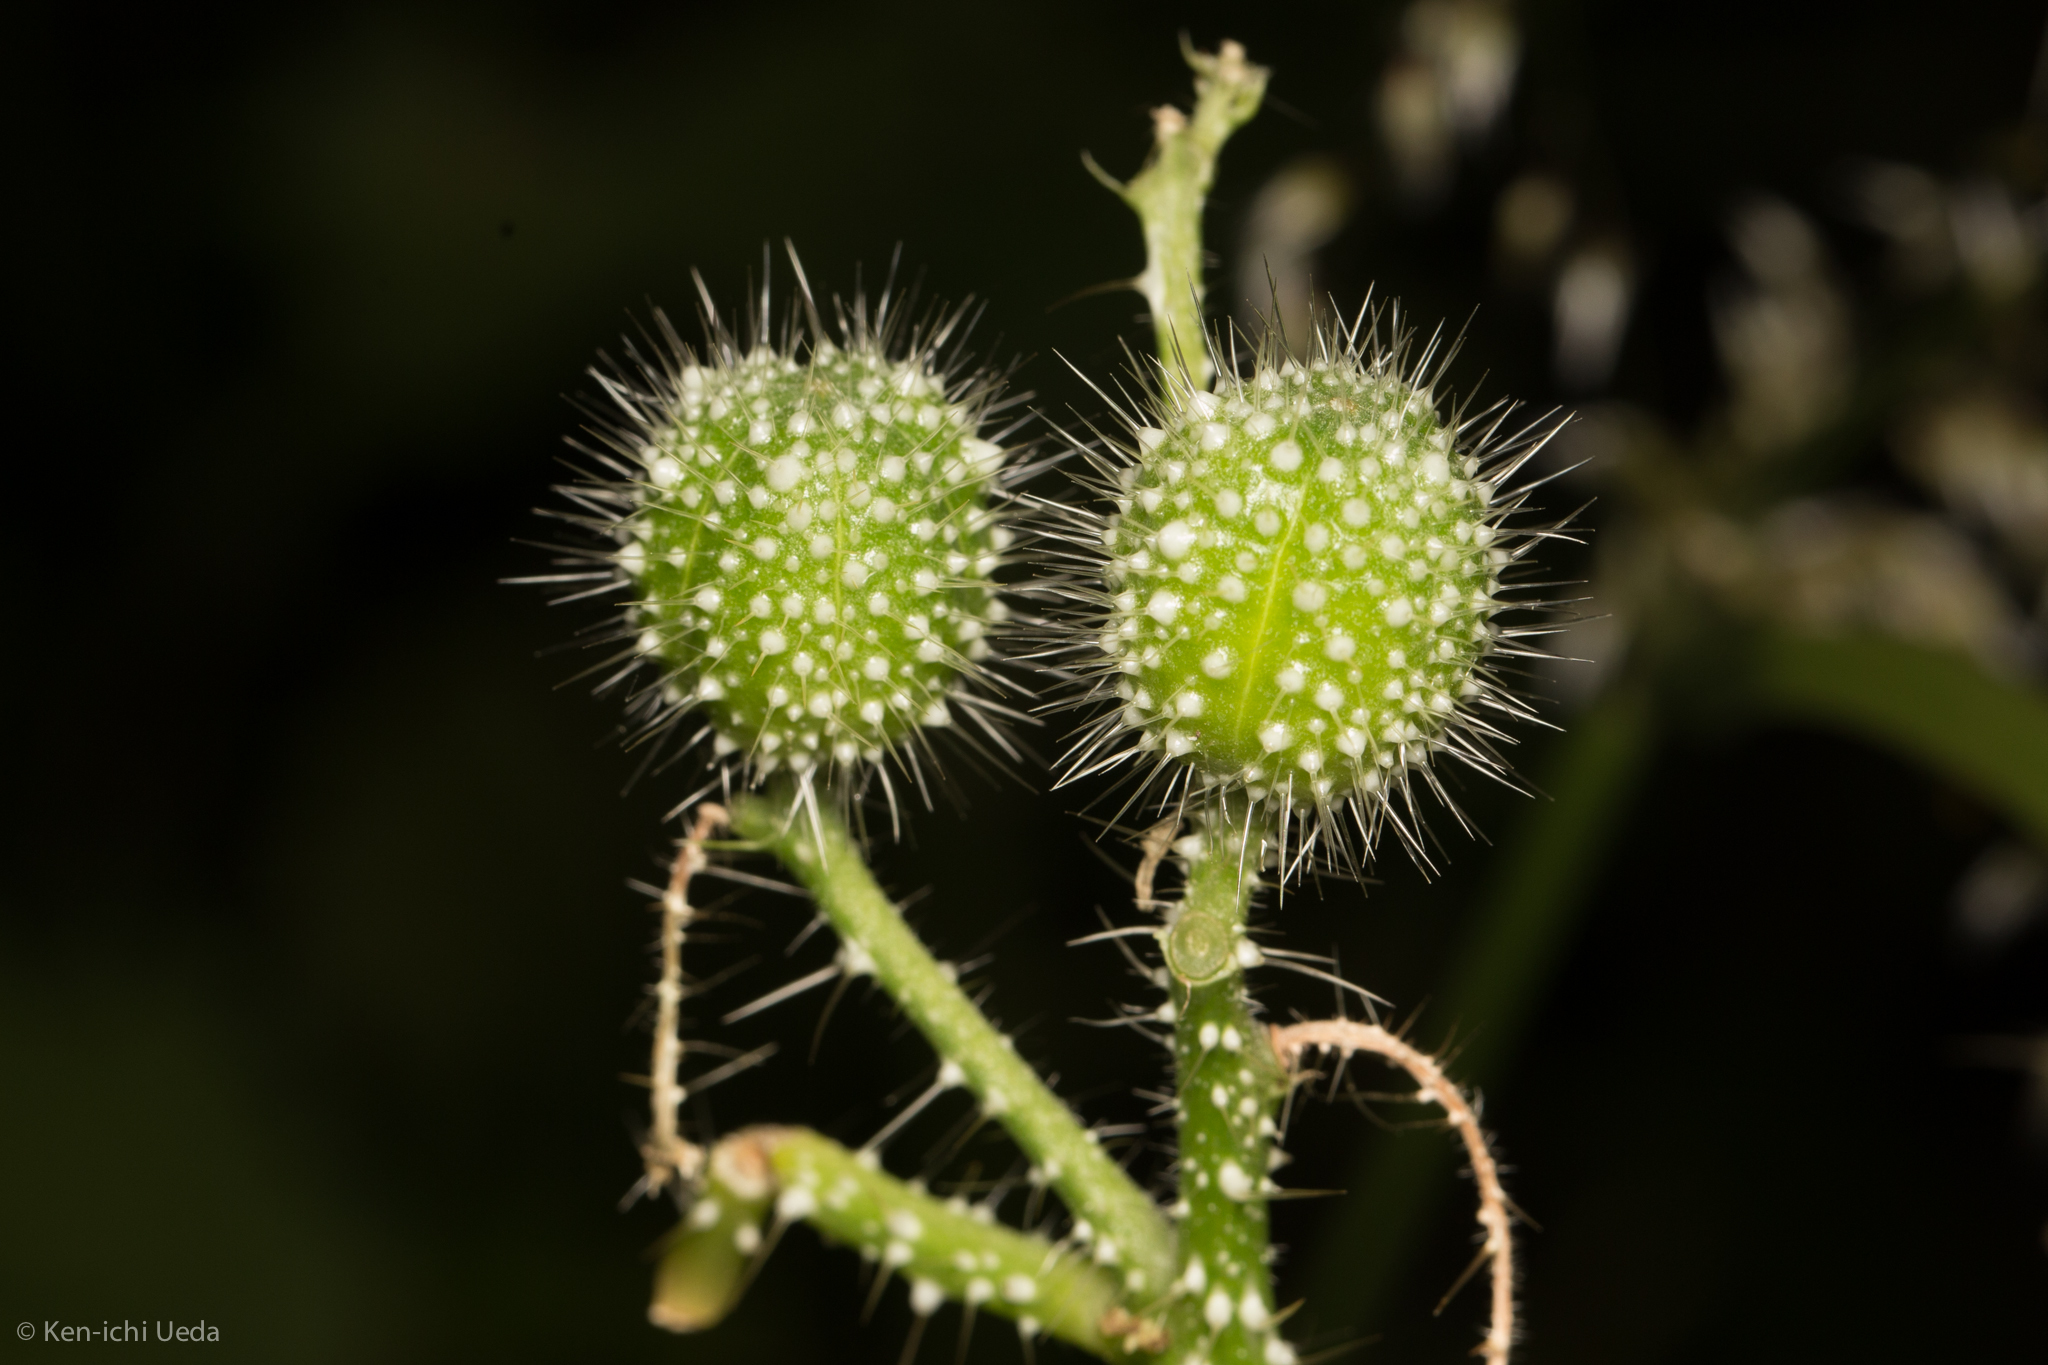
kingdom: Plantae
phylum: Tracheophyta
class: Magnoliopsida
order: Malpighiales
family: Euphorbiaceae
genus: Cnidoscolus
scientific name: Cnidoscolus angustidens
